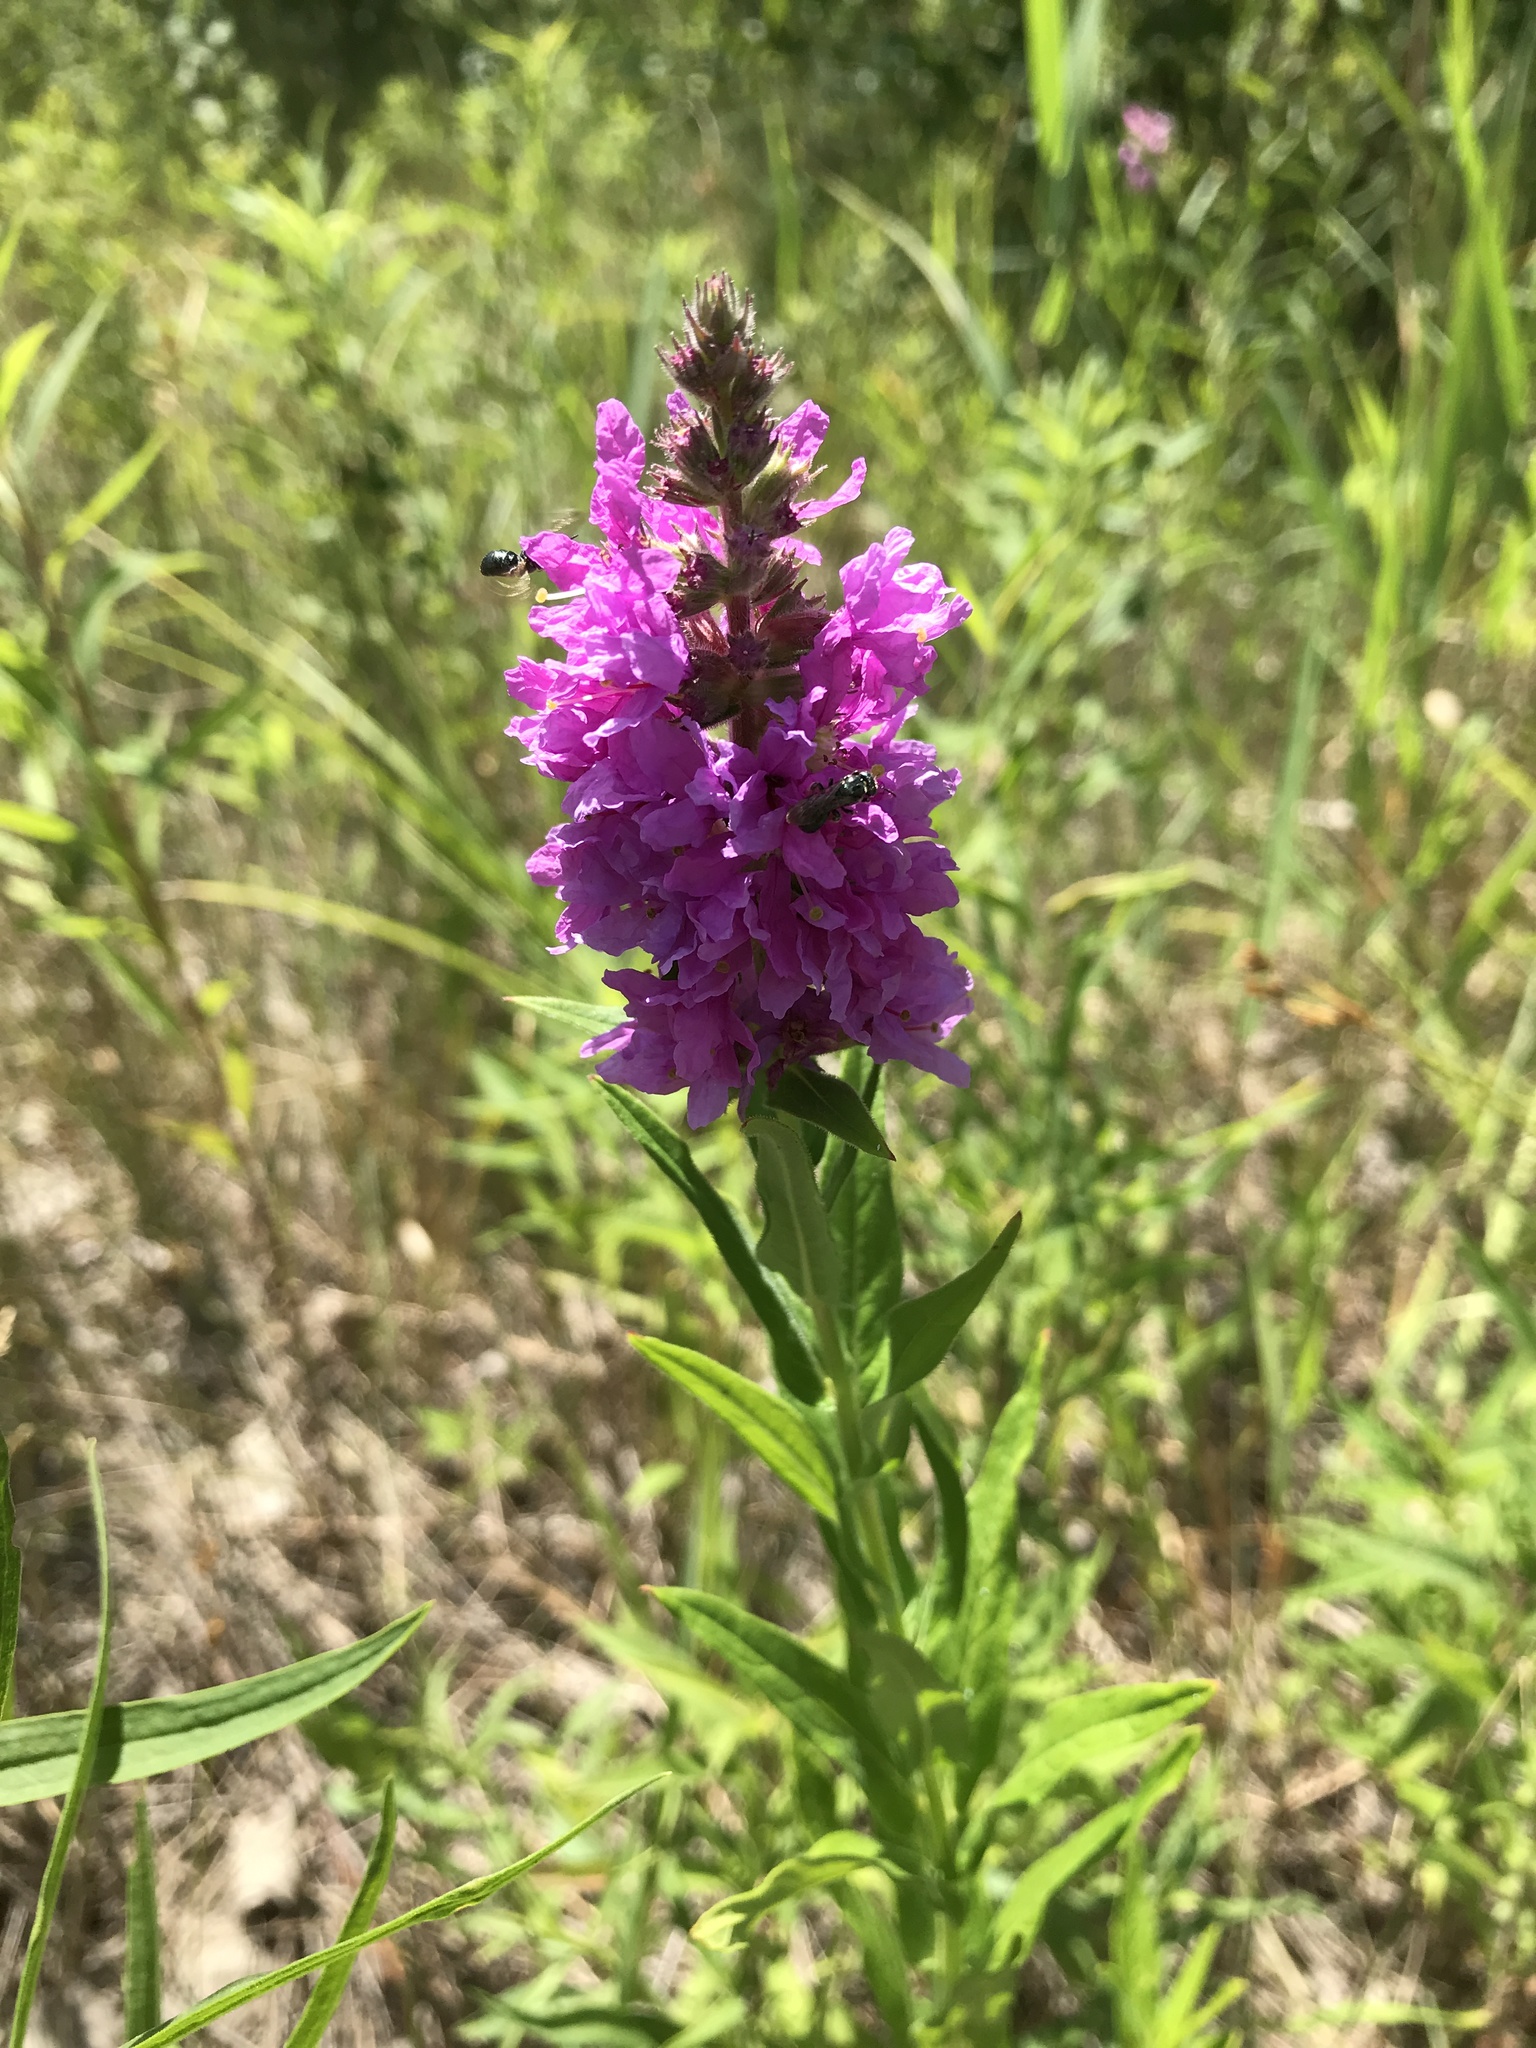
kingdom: Plantae
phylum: Tracheophyta
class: Magnoliopsida
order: Myrtales
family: Lythraceae
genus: Lythrum
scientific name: Lythrum salicaria
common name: Purple loosestrife
